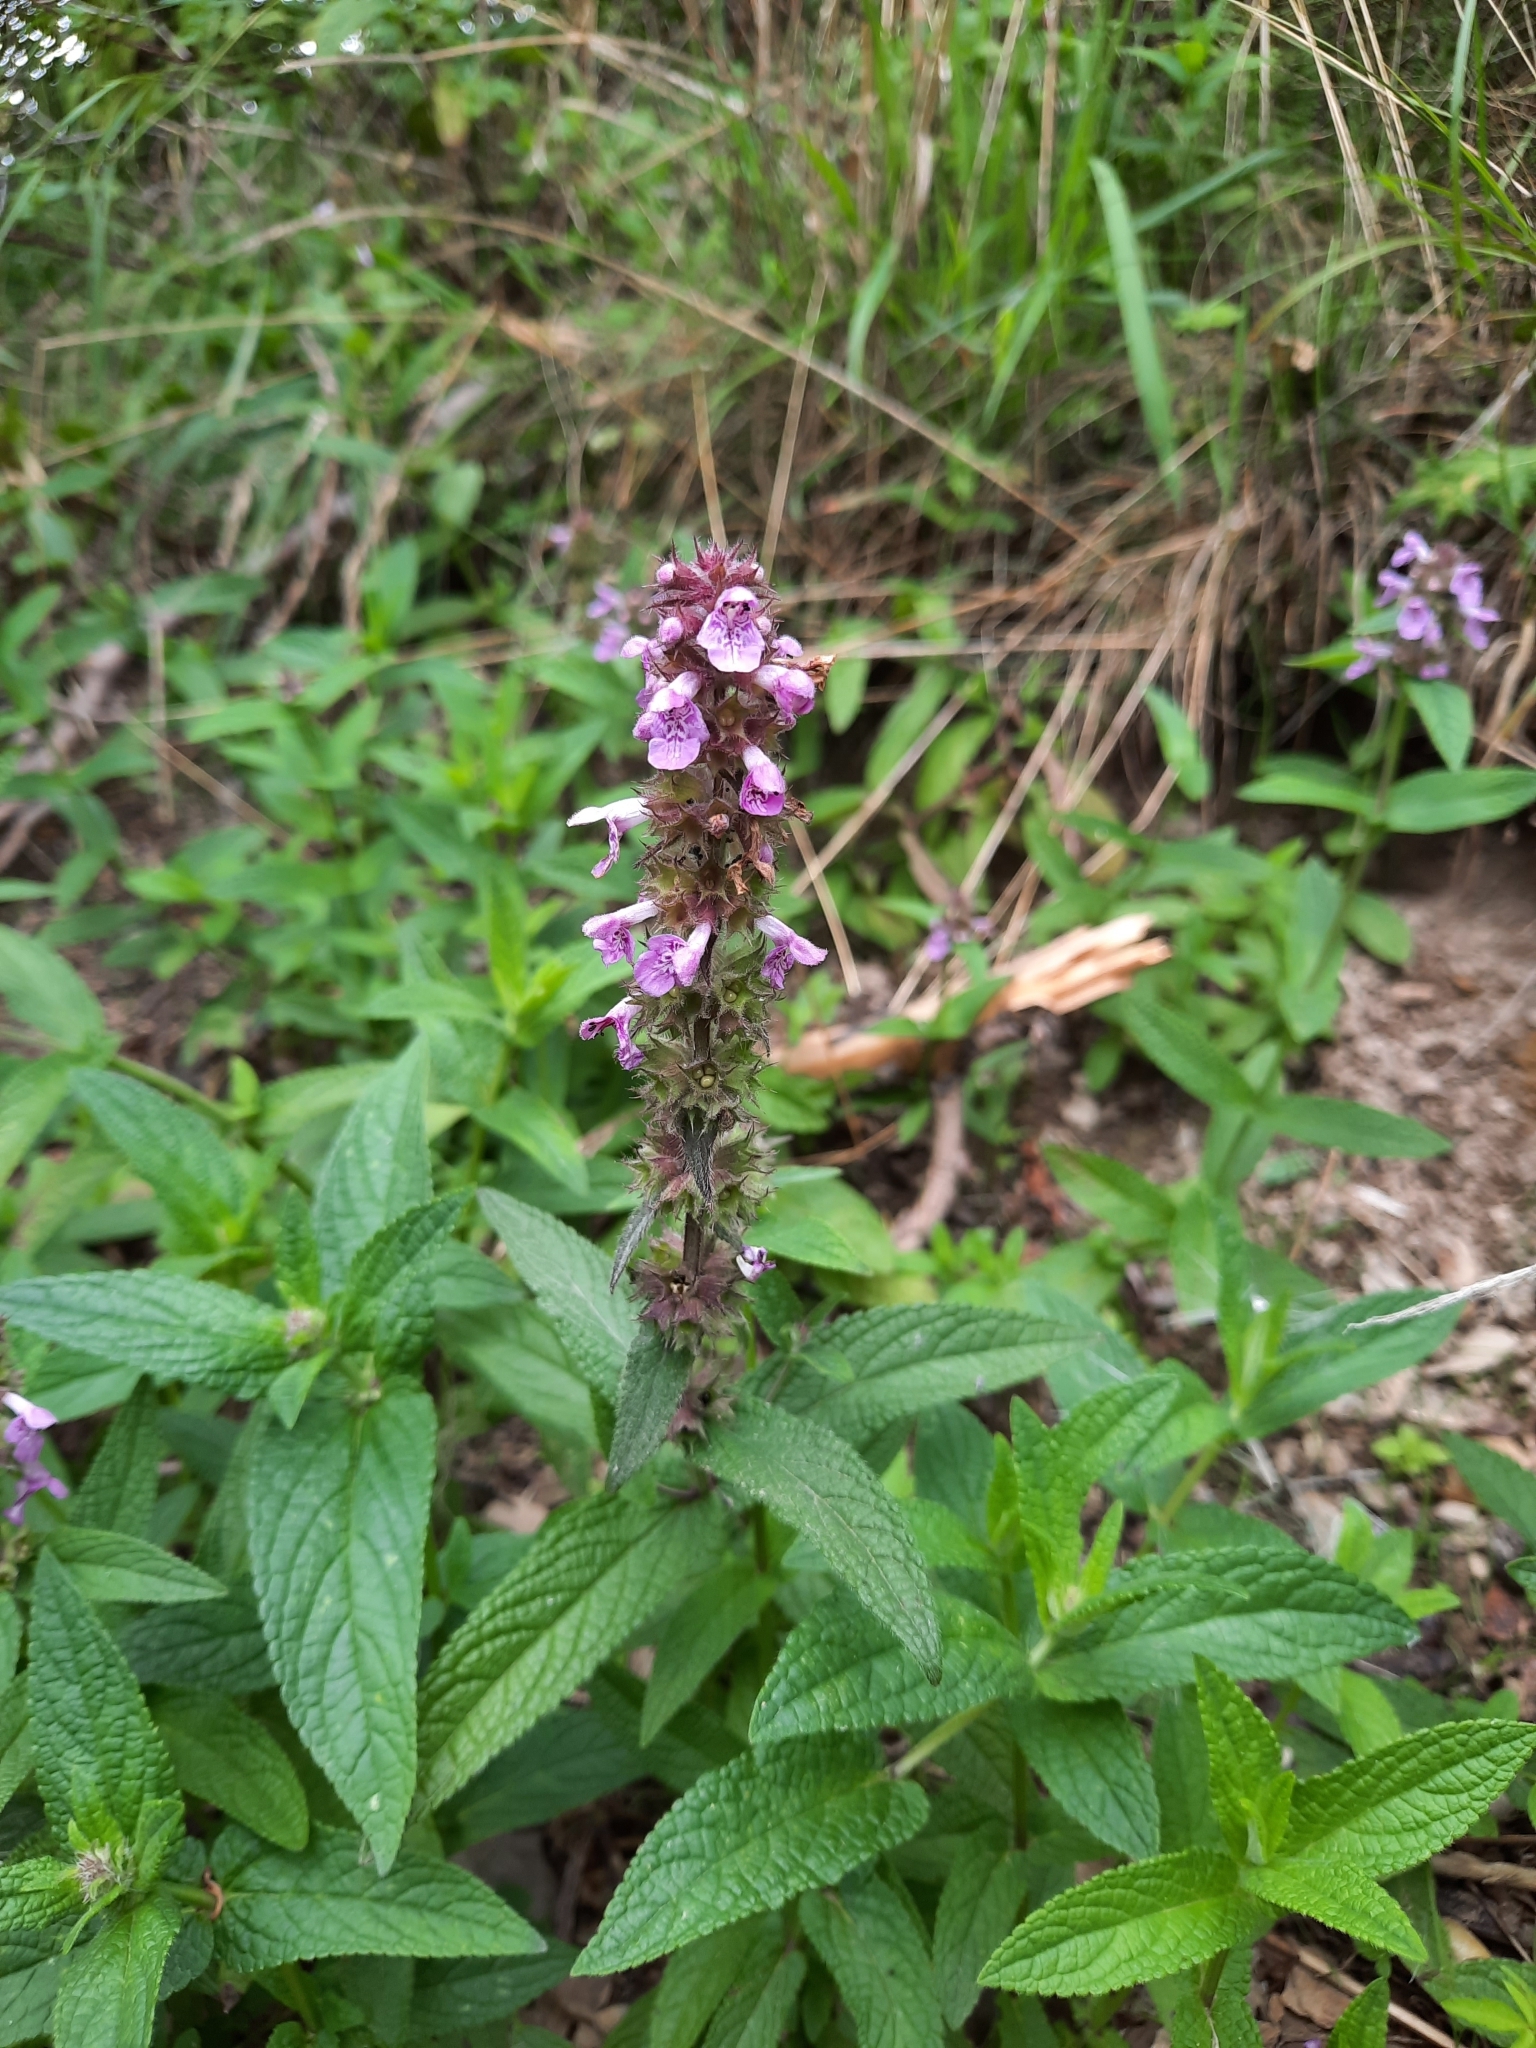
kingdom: Plantae
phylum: Tracheophyta
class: Magnoliopsida
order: Lamiales
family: Lamiaceae
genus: Stachys
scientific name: Stachys palustris
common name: Marsh woundwort
